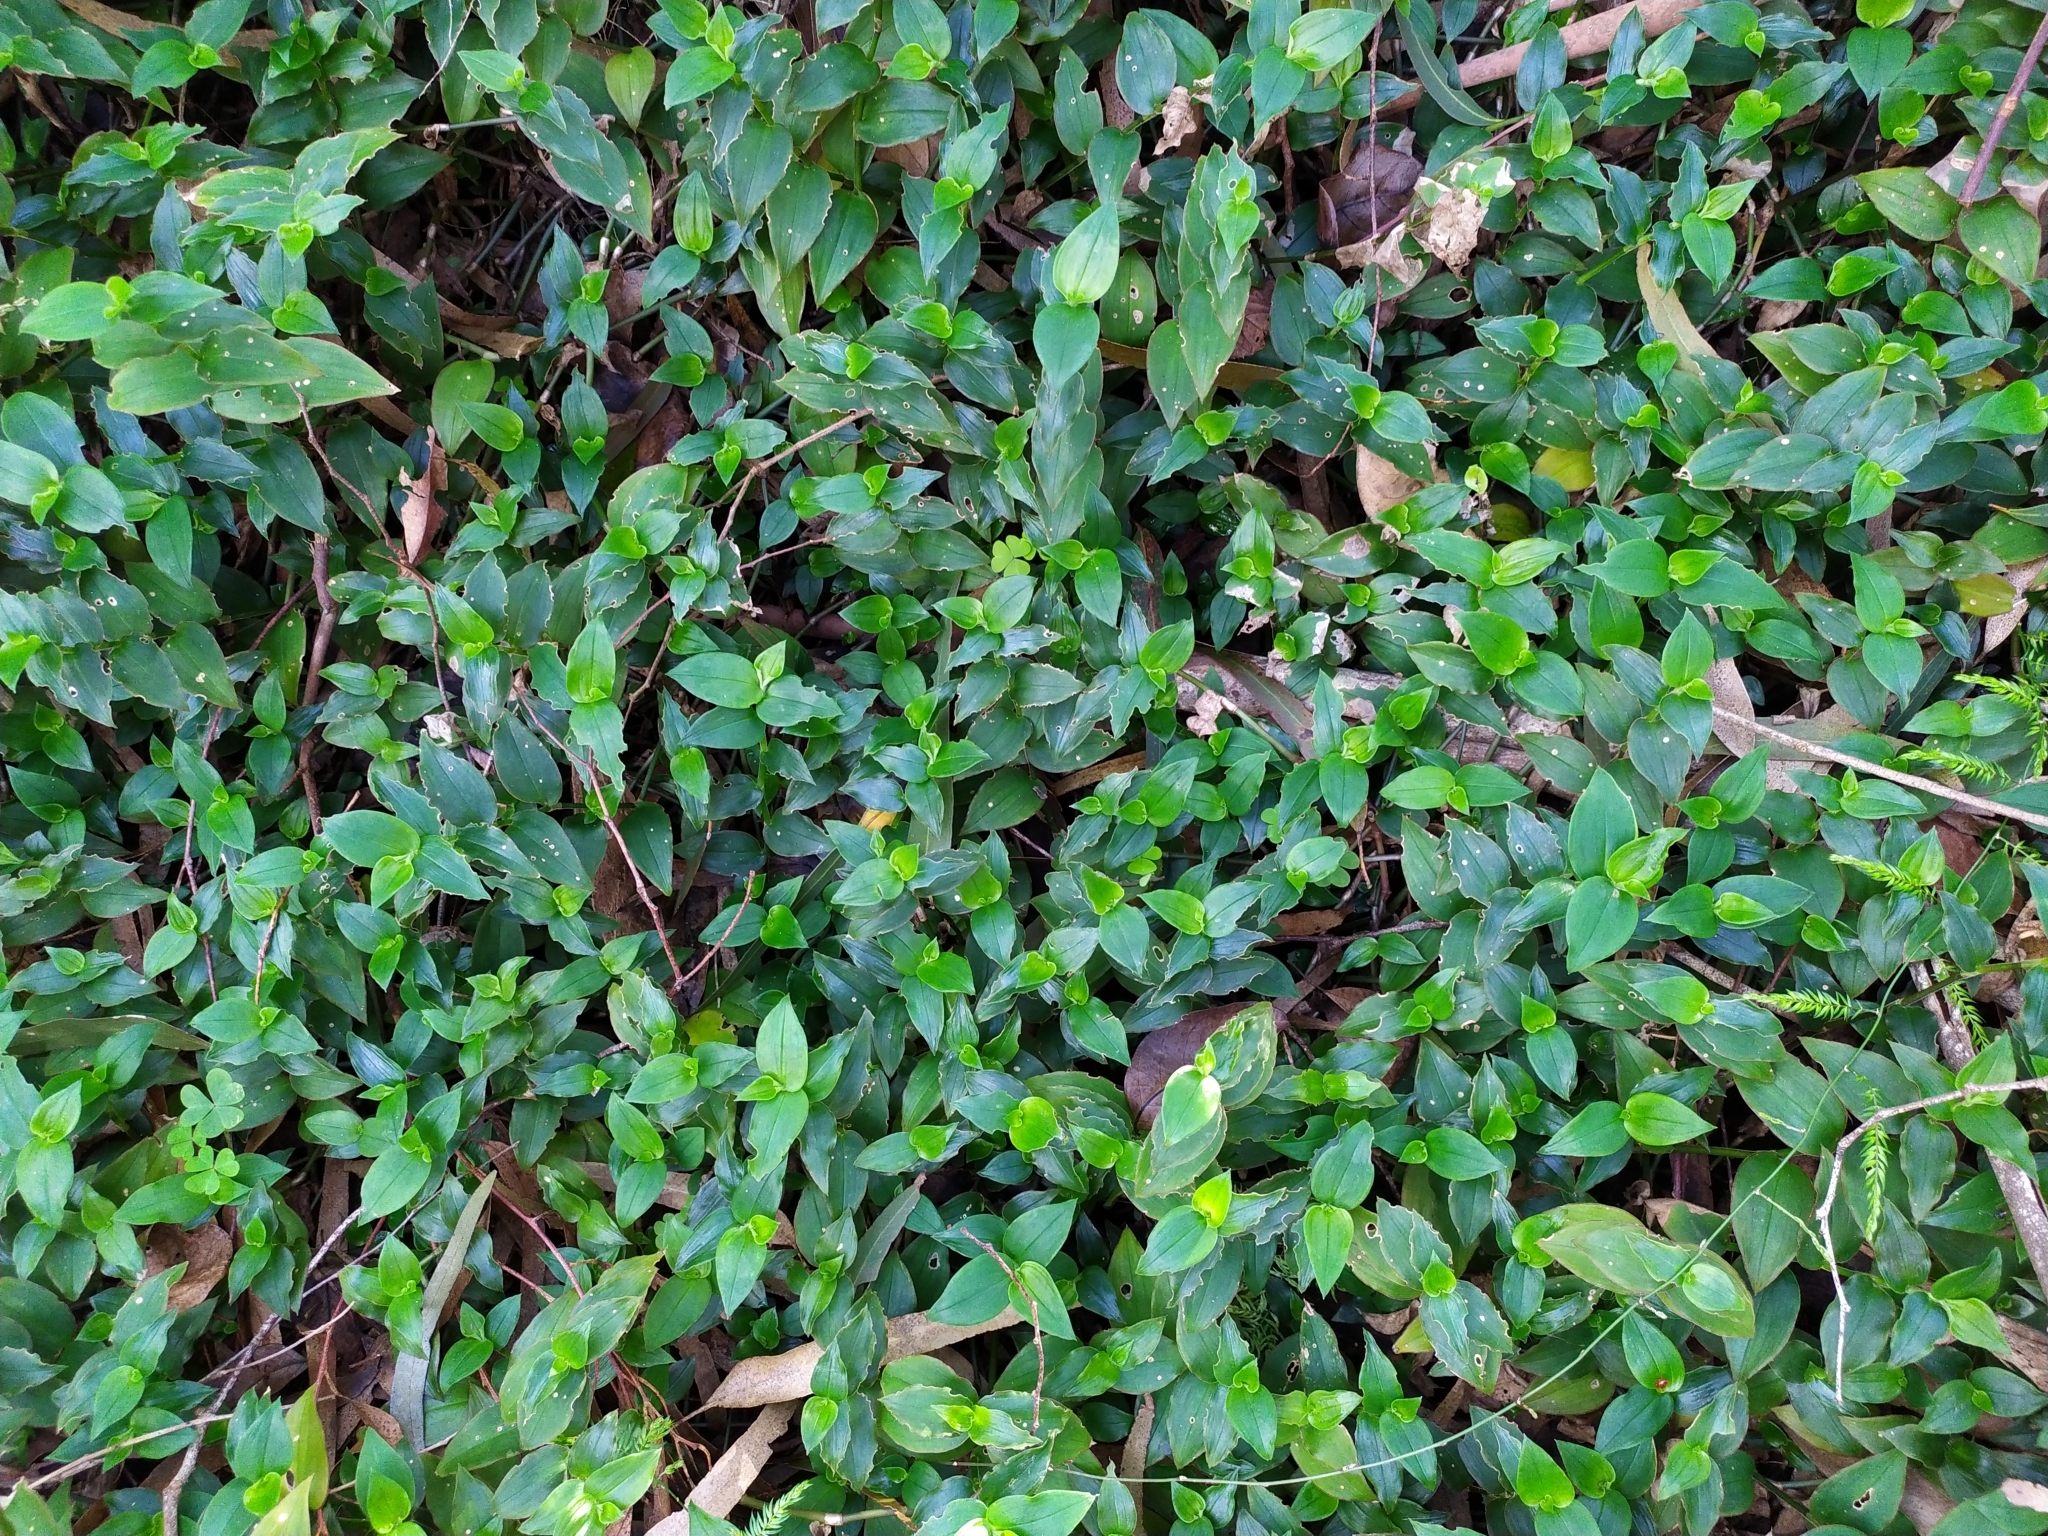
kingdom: Plantae
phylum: Tracheophyta
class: Liliopsida
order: Commelinales
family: Commelinaceae
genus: Tradescantia
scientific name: Tradescantia fluminensis
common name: Wandering-jew
